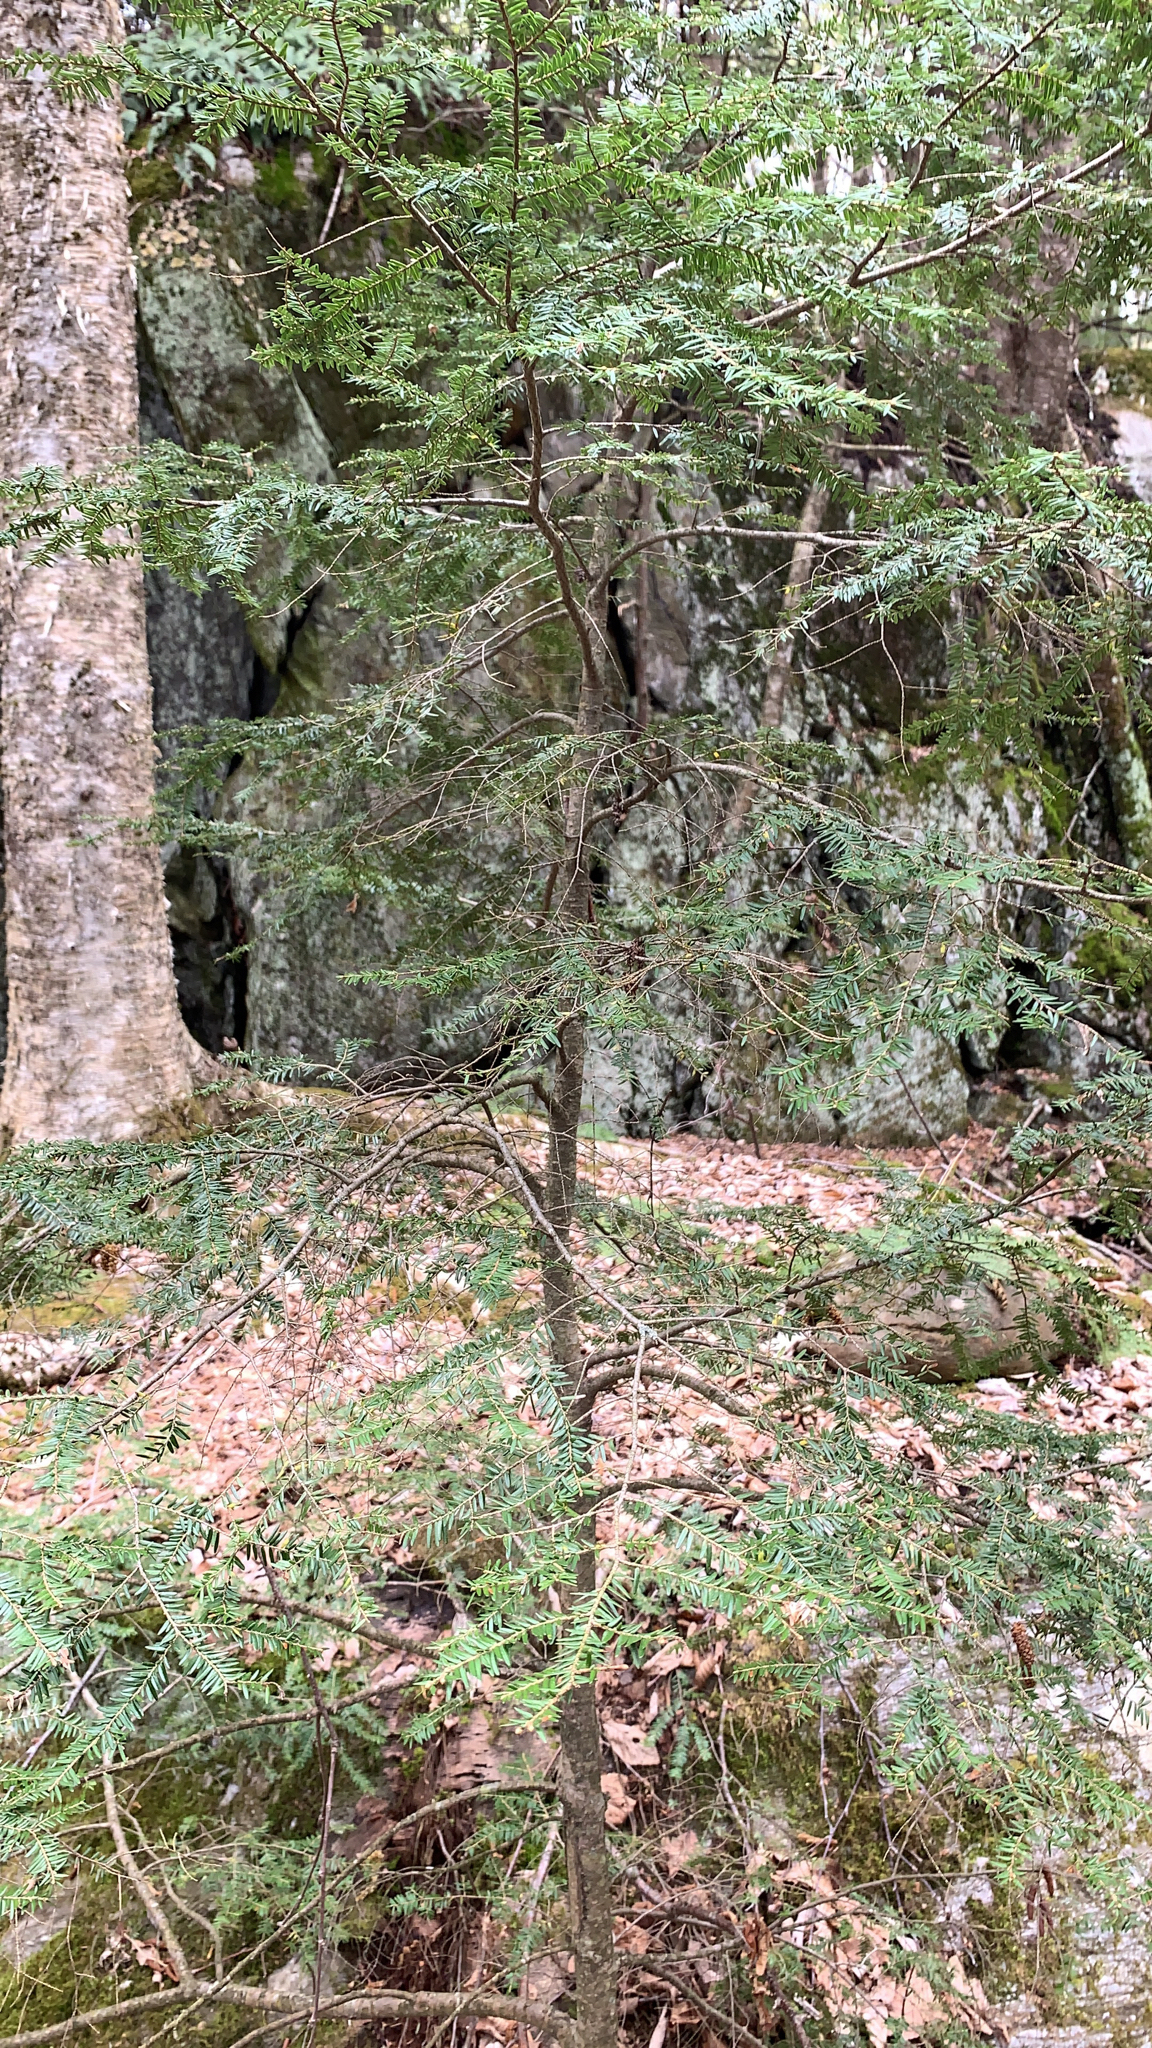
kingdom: Plantae
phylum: Tracheophyta
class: Pinopsida
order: Pinales
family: Pinaceae
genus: Tsuga
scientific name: Tsuga canadensis
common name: Eastern hemlock
